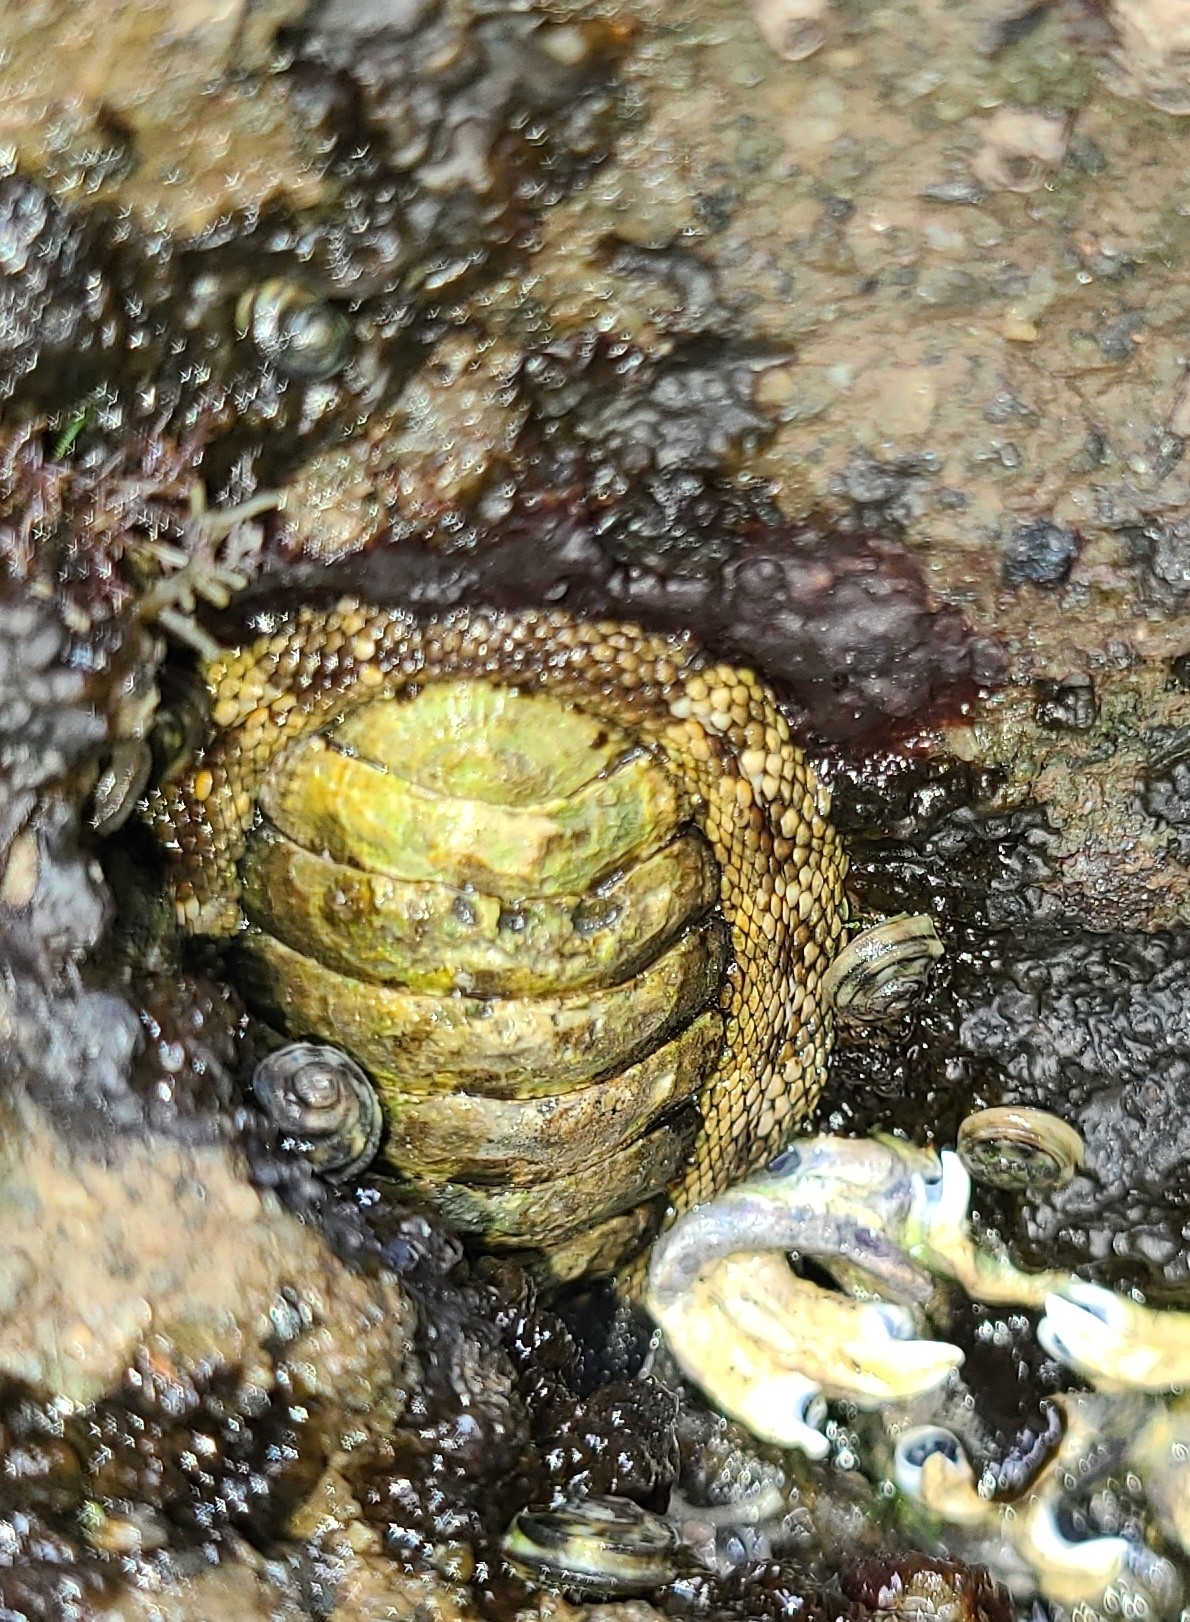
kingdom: Animalia
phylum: Mollusca
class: Polyplacophora
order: Chitonida
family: Chitonidae
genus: Sypharochiton
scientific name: Sypharochiton pelliserpentis
